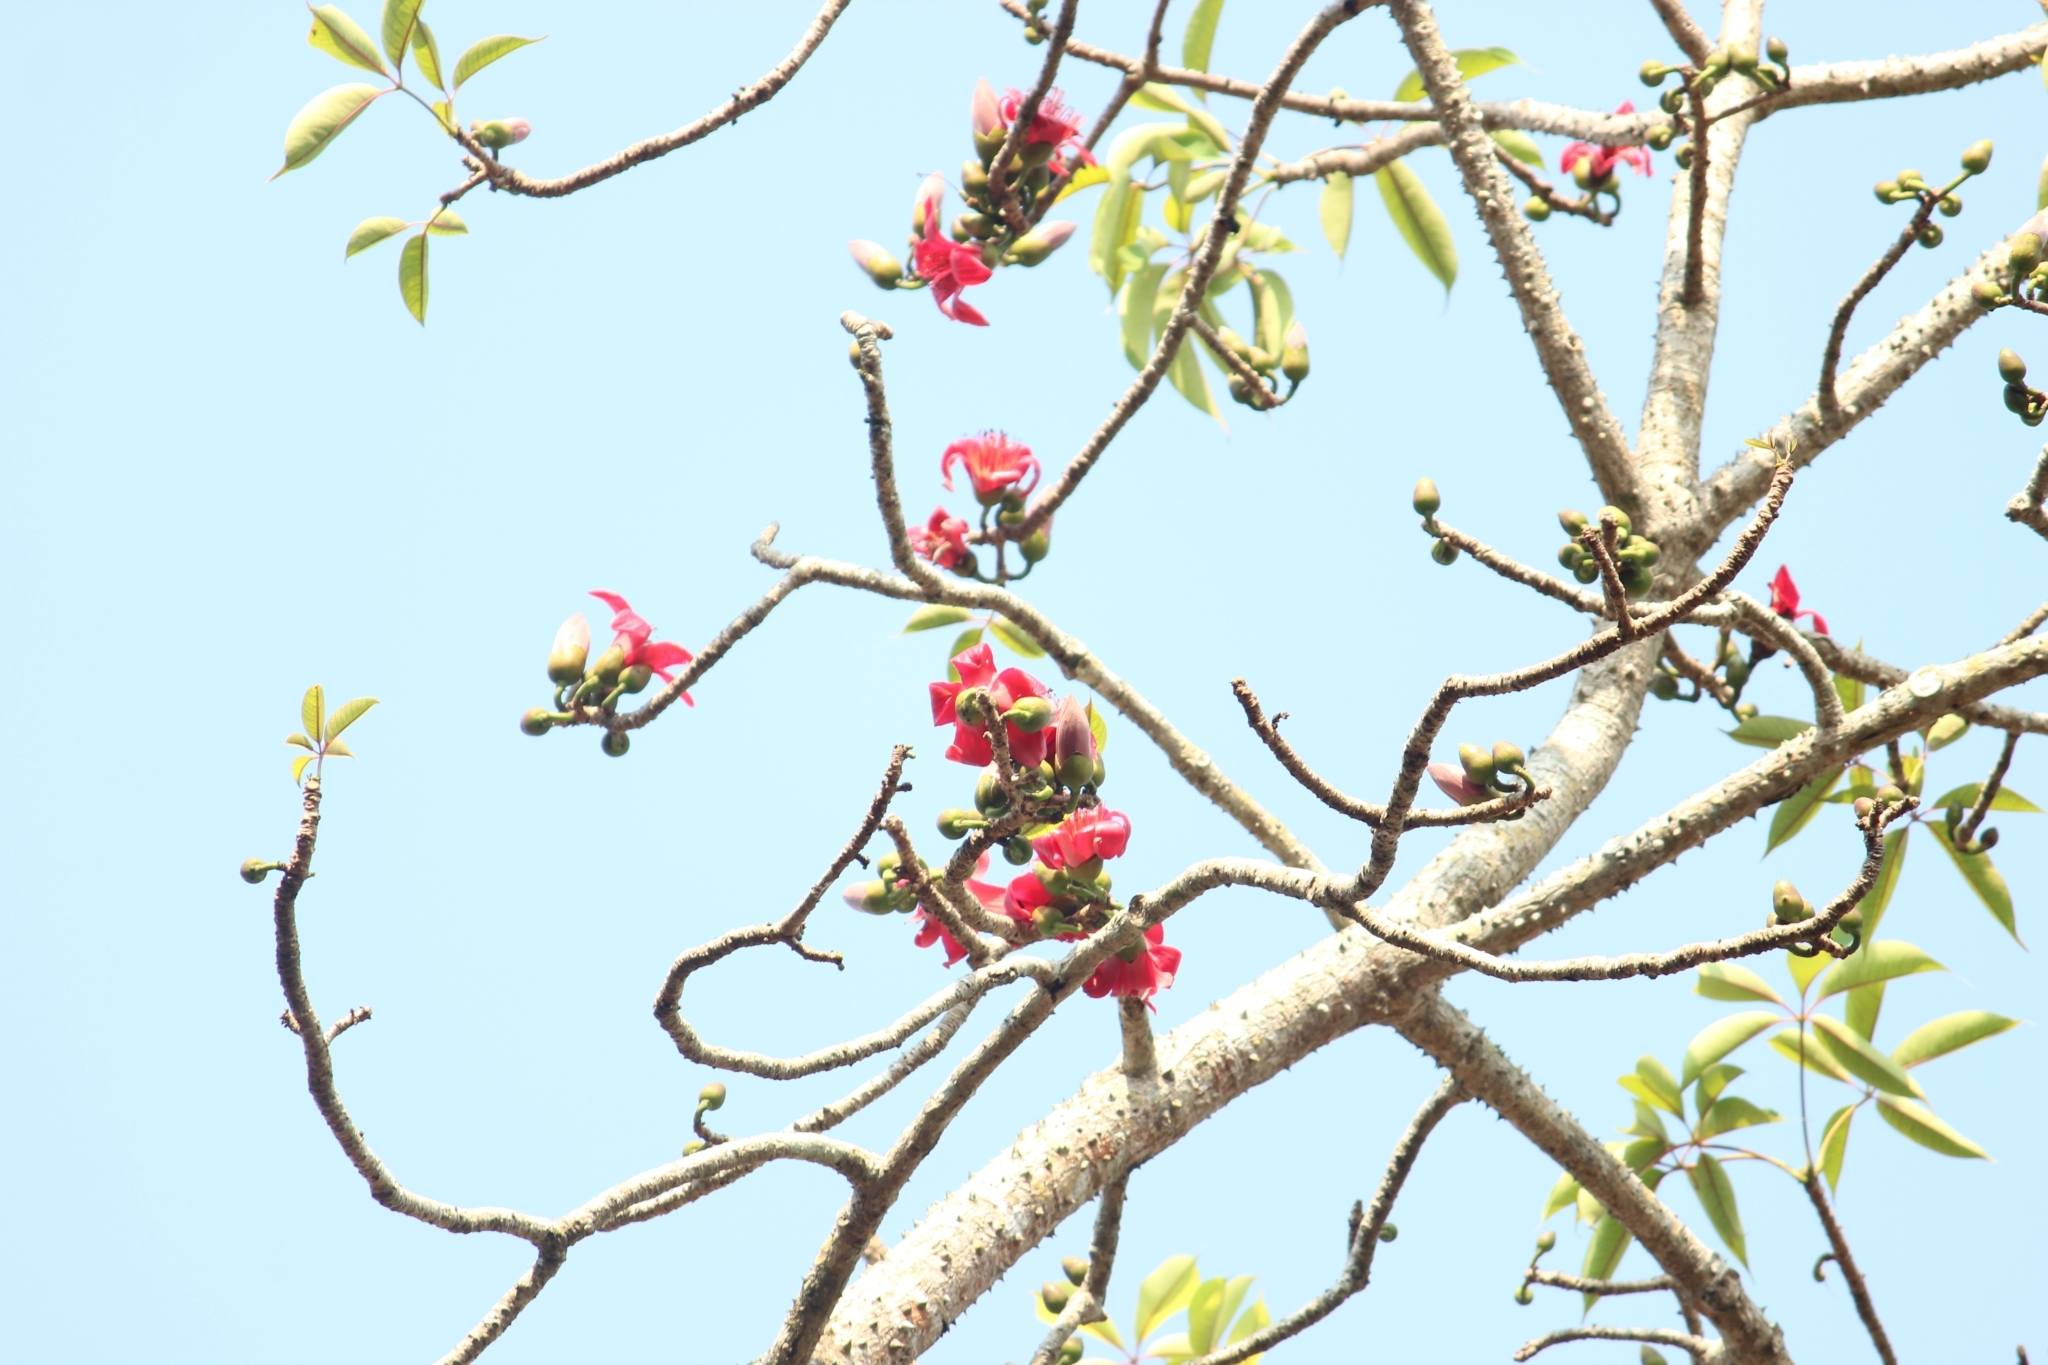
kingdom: Plantae
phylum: Tracheophyta
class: Magnoliopsida
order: Malvales
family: Malvaceae
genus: Bombax
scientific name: Bombax ceiba
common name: Northern-cottonwood
